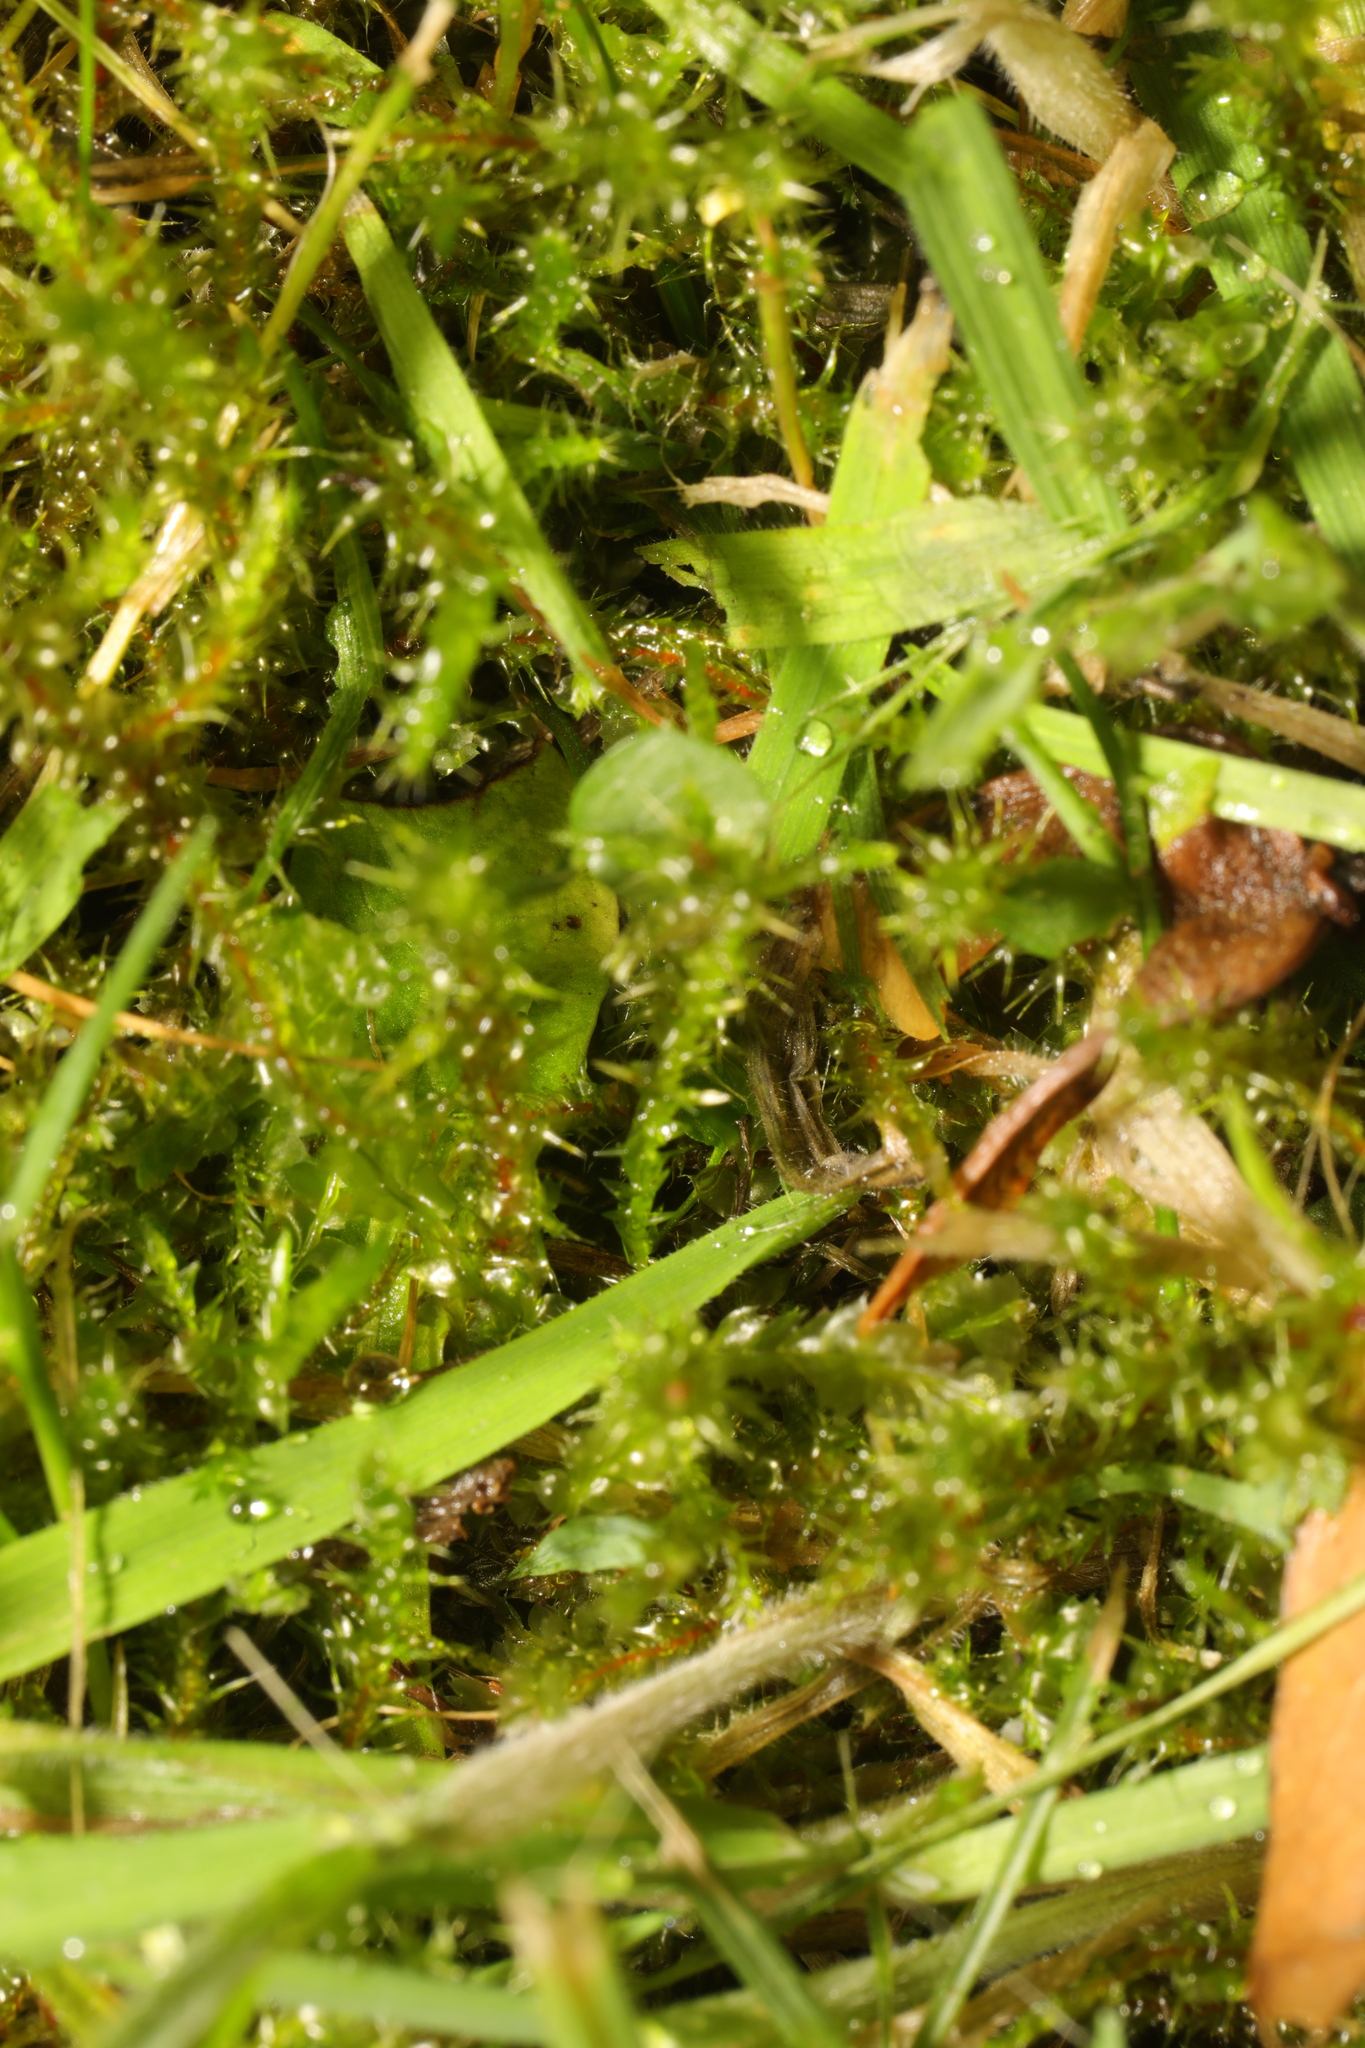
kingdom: Plantae
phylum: Bryophyta
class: Bryopsida
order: Hypnales
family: Hylocomiaceae
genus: Rhytidiadelphus
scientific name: Rhytidiadelphus squarrosus
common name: Springy turf-moss
